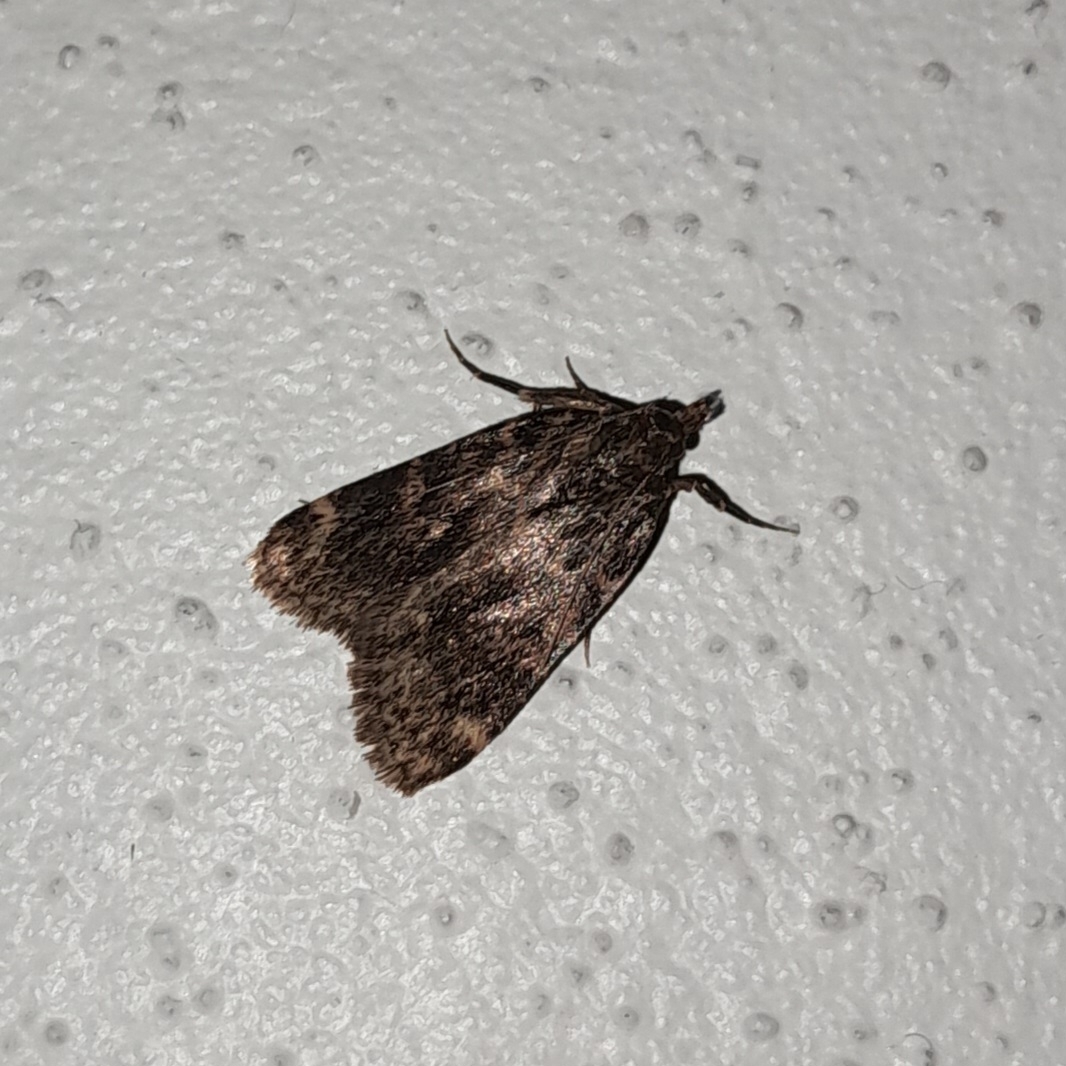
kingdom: Animalia
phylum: Arthropoda
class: Insecta
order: Lepidoptera
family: Pyralidae
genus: Aglossa
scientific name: Aglossa caprealis
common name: Small tabby
